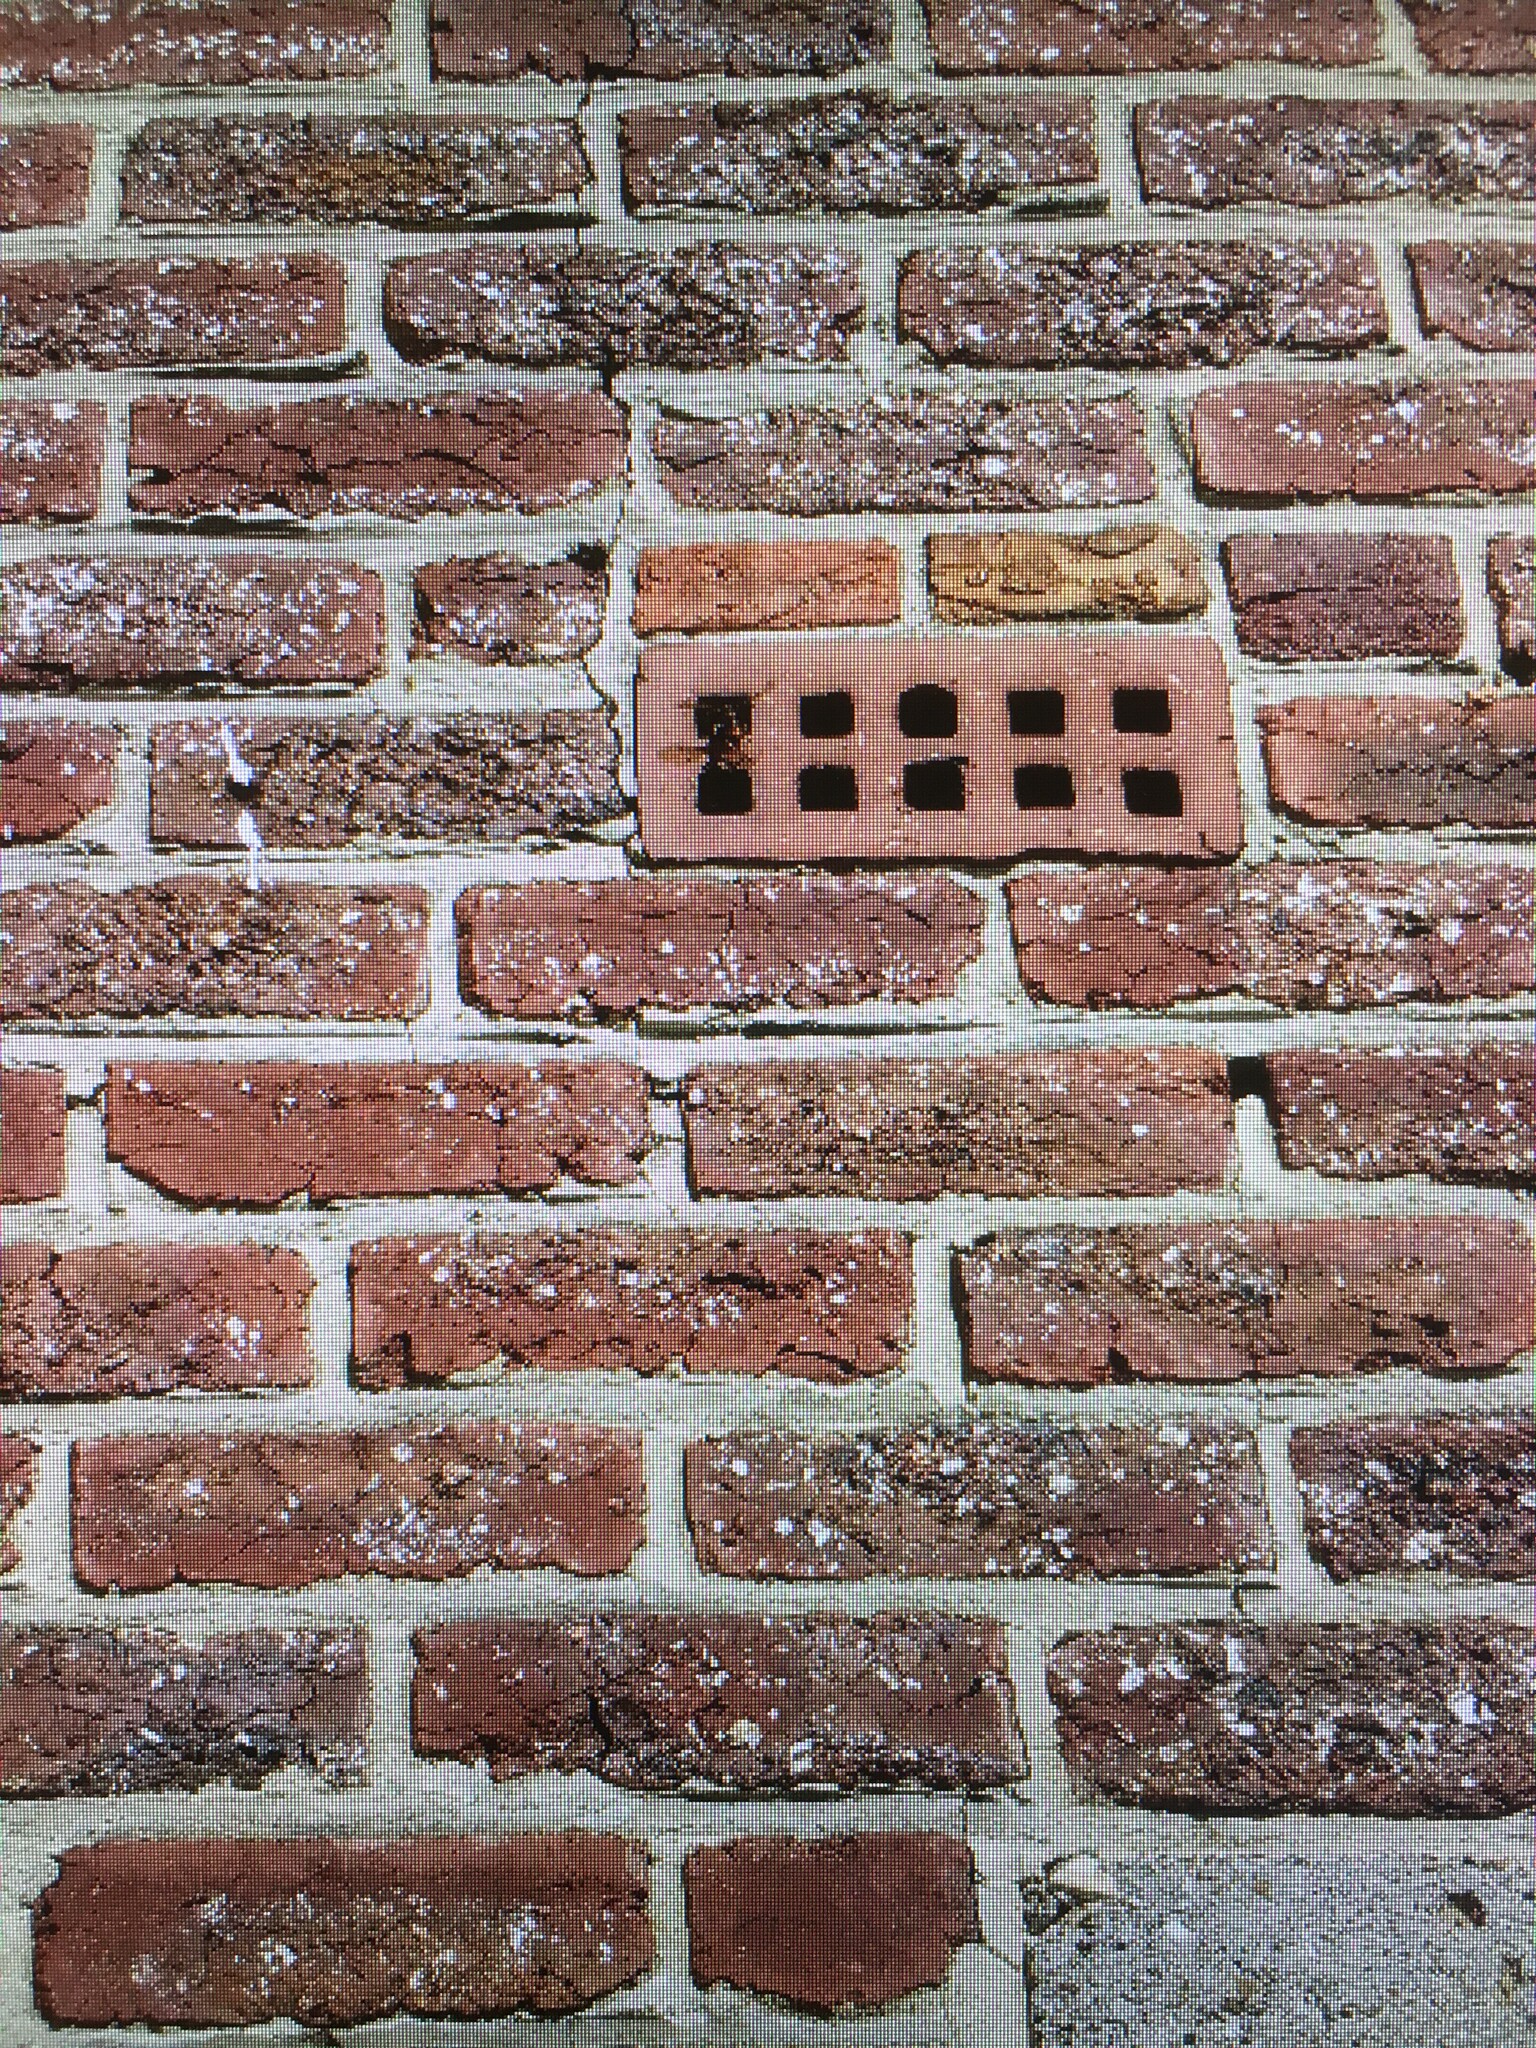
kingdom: Animalia
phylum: Arthropoda
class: Insecta
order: Hymenoptera
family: Vespidae
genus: Vespa
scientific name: Vespa velutina
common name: Asian hornet
